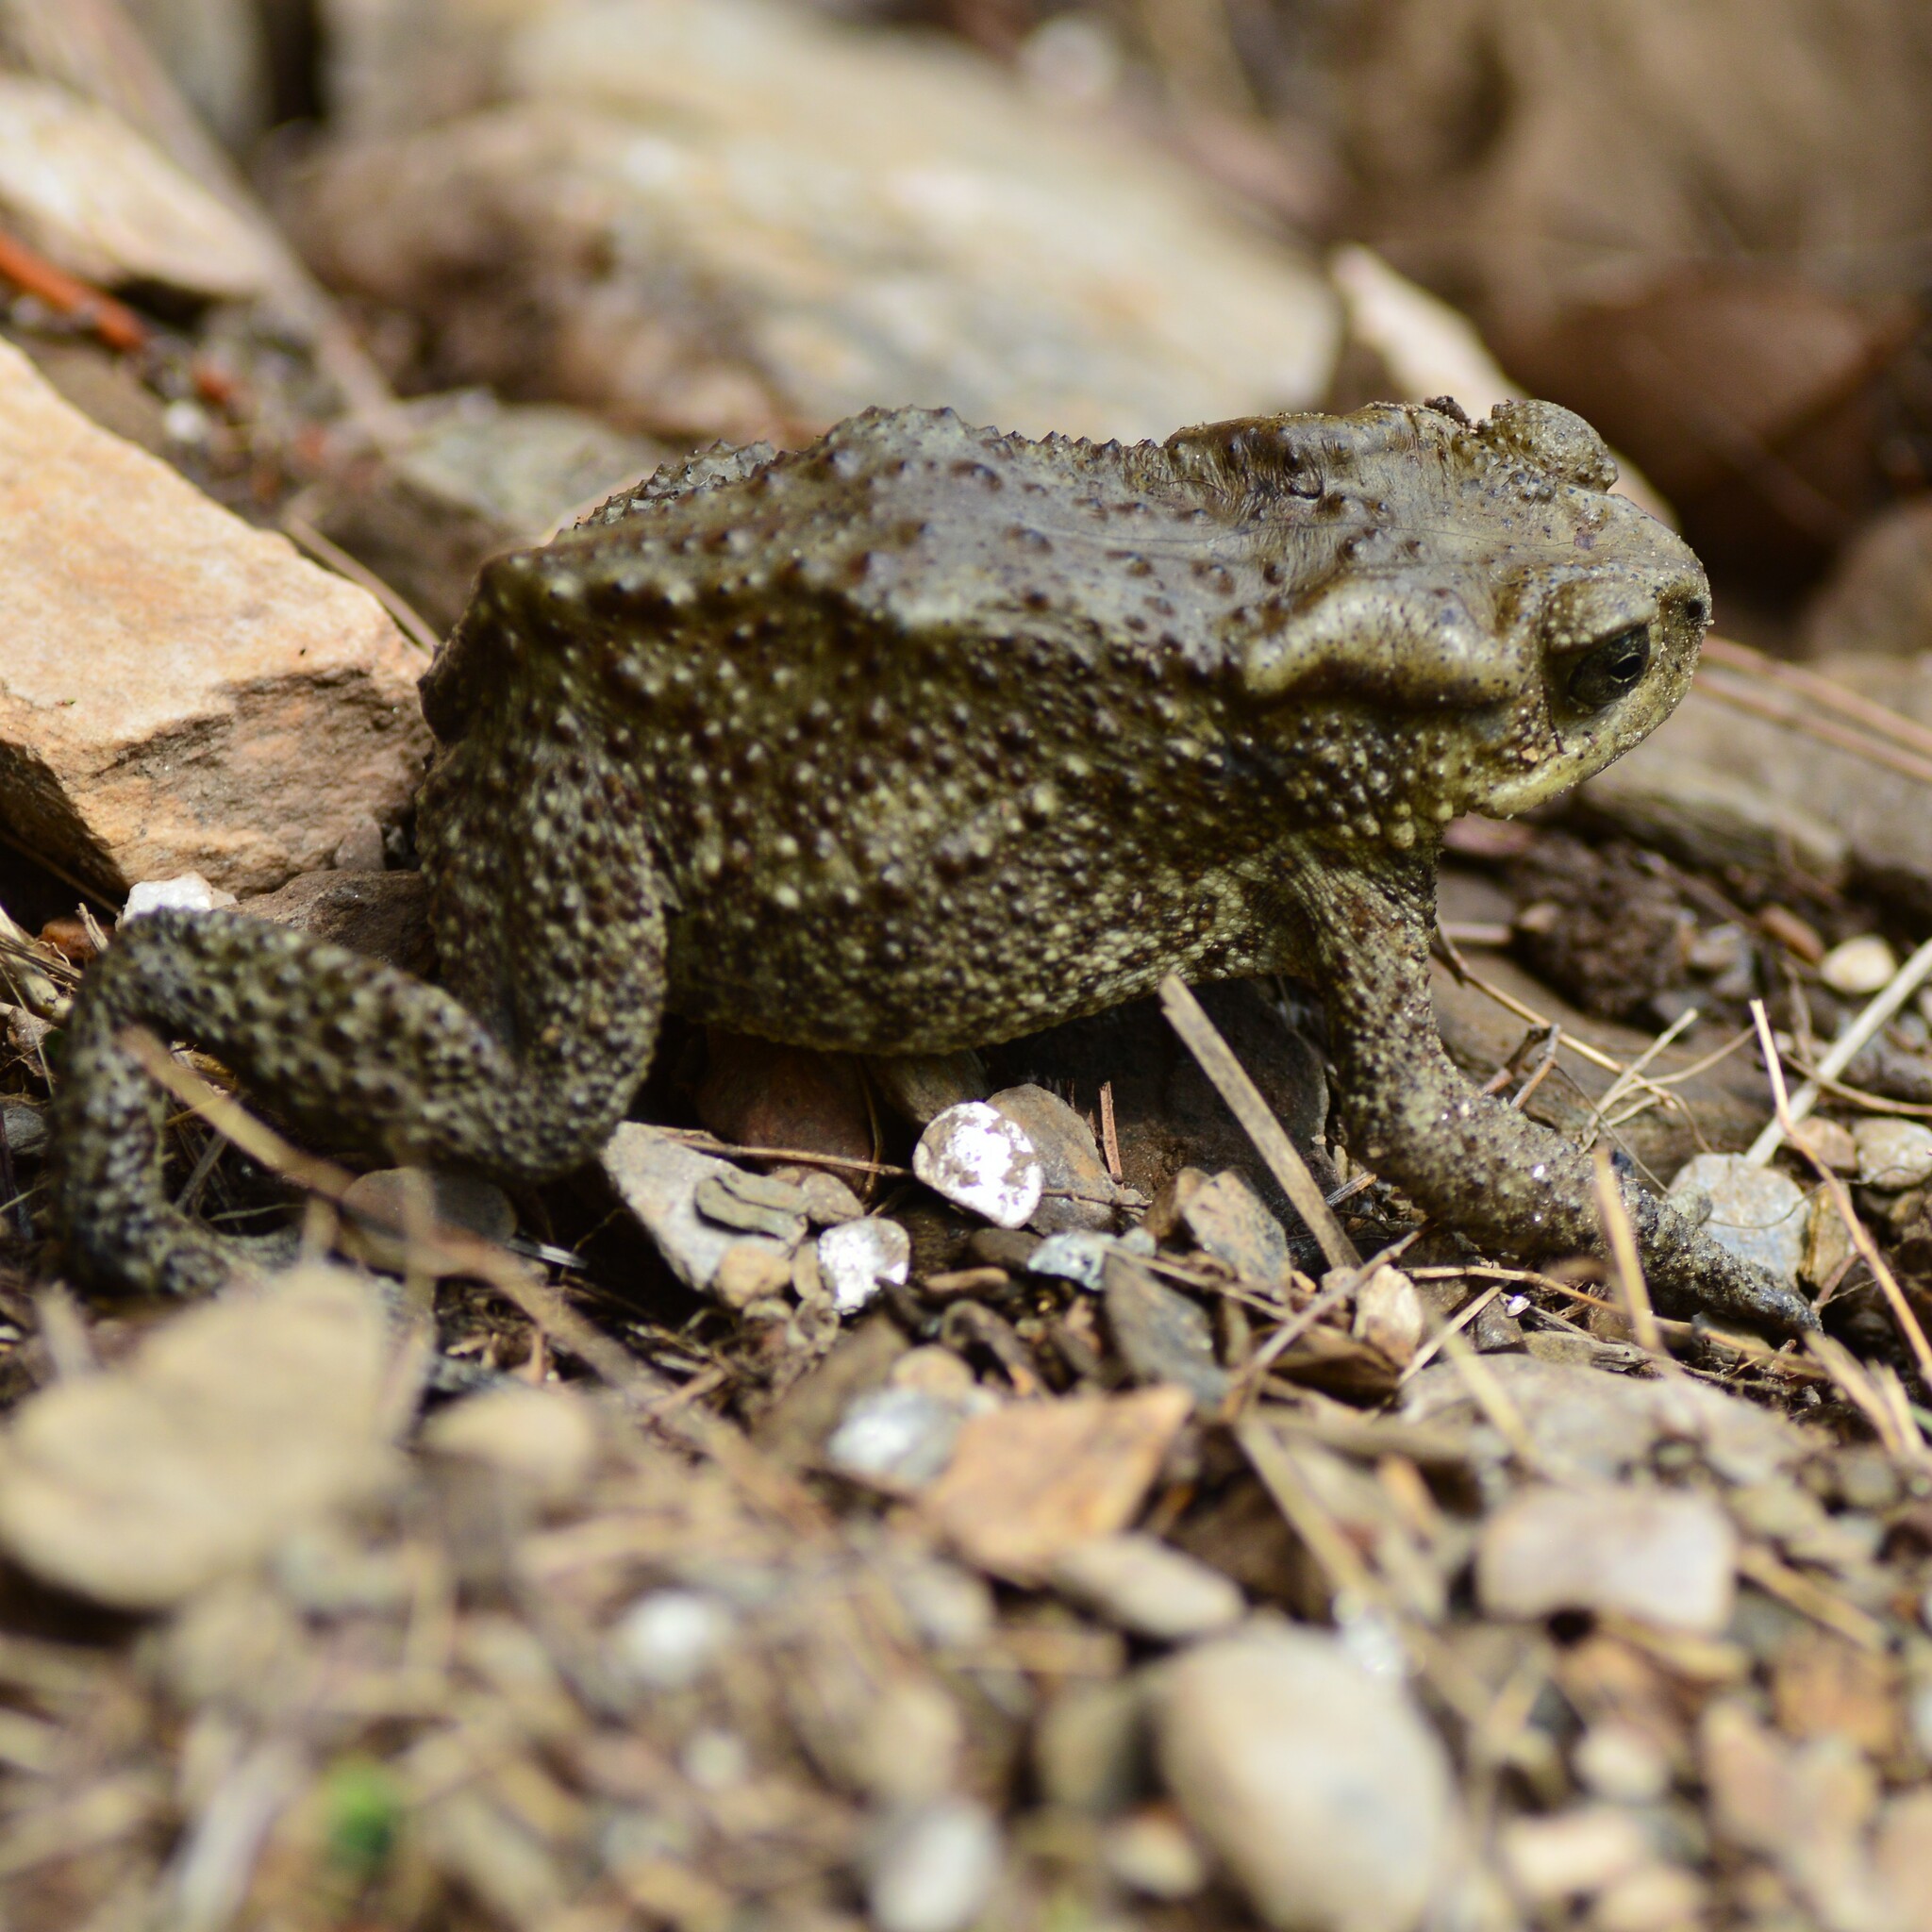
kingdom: Animalia
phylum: Chordata
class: Amphibia
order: Anura
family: Bufonidae
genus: Duttaphrynus
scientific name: Duttaphrynus himalayanus
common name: Günther's high altitude toad
